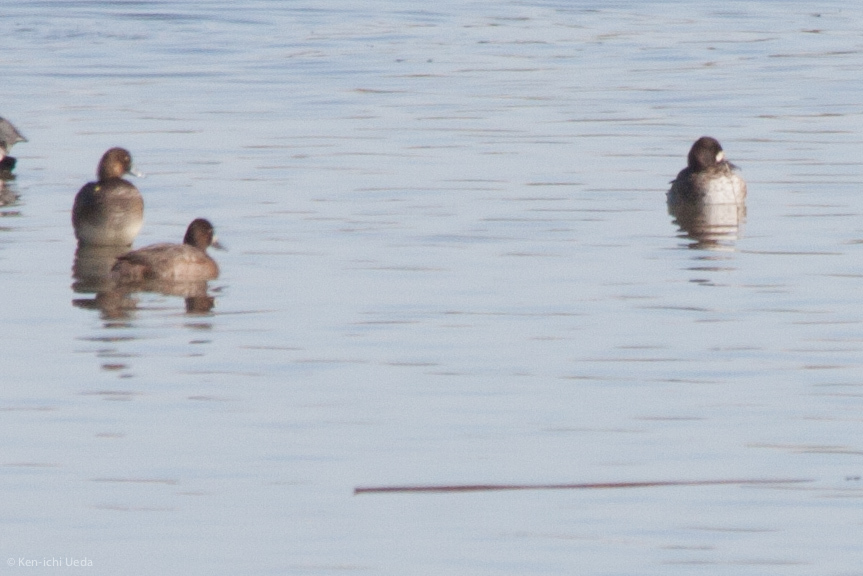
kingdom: Animalia
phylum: Chordata
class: Aves
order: Anseriformes
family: Anatidae
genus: Aythya
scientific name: Aythya affinis
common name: Lesser scaup
